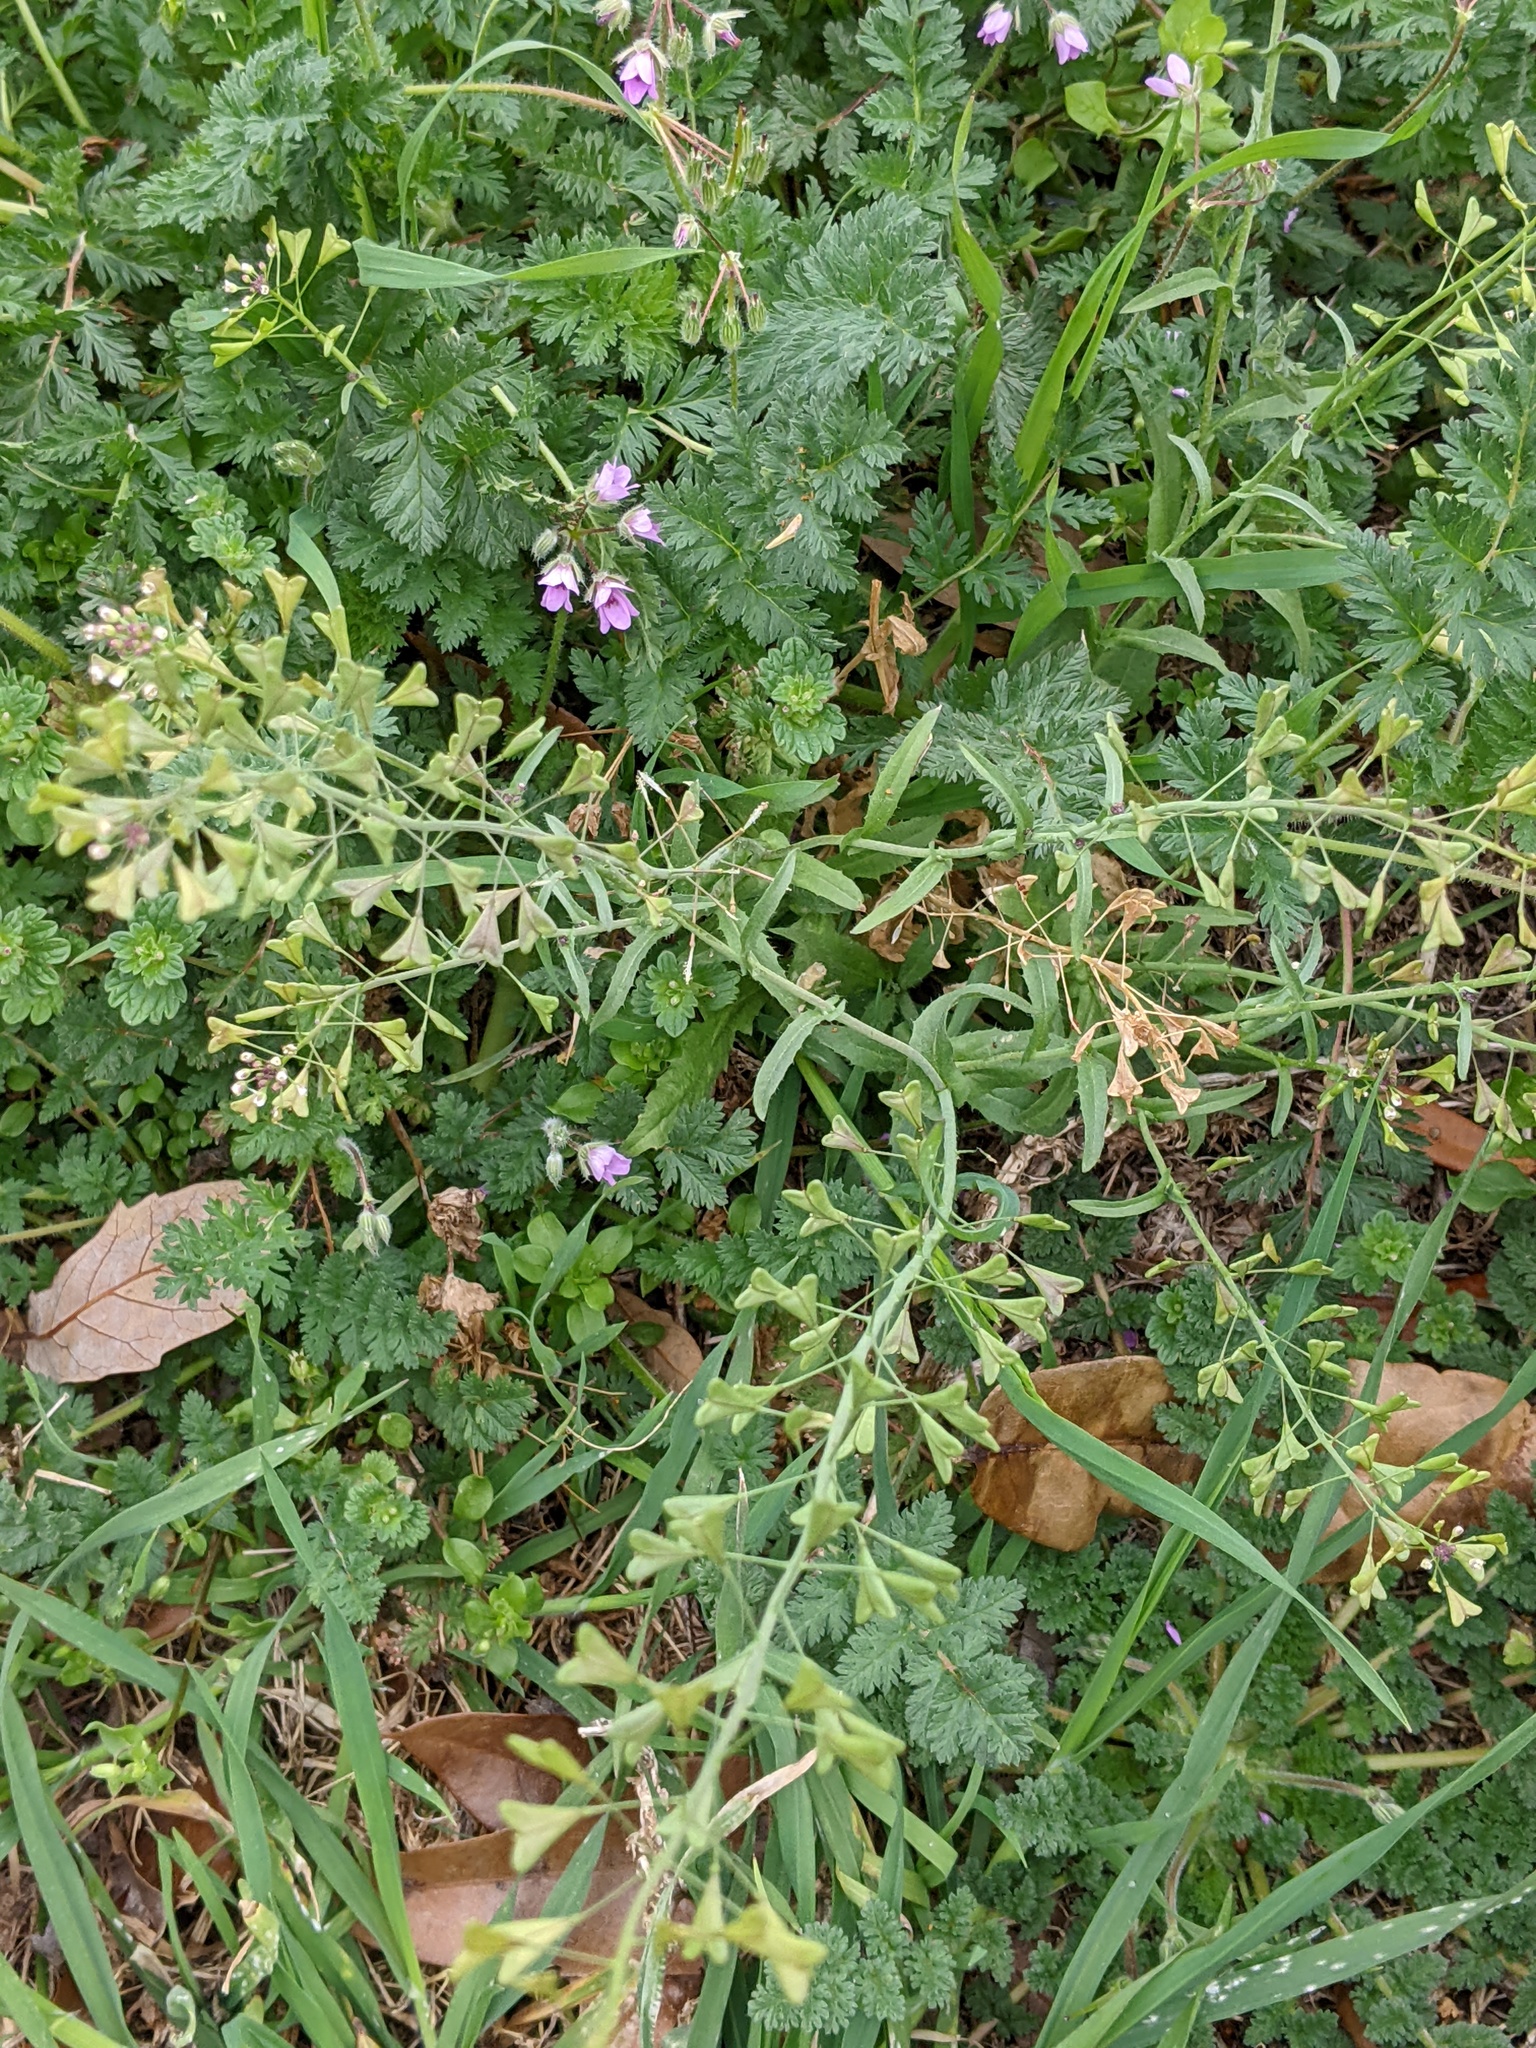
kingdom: Plantae
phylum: Tracheophyta
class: Magnoliopsida
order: Brassicales
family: Brassicaceae
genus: Capsella
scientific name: Capsella bursa-pastoris
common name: Shepherd's purse
